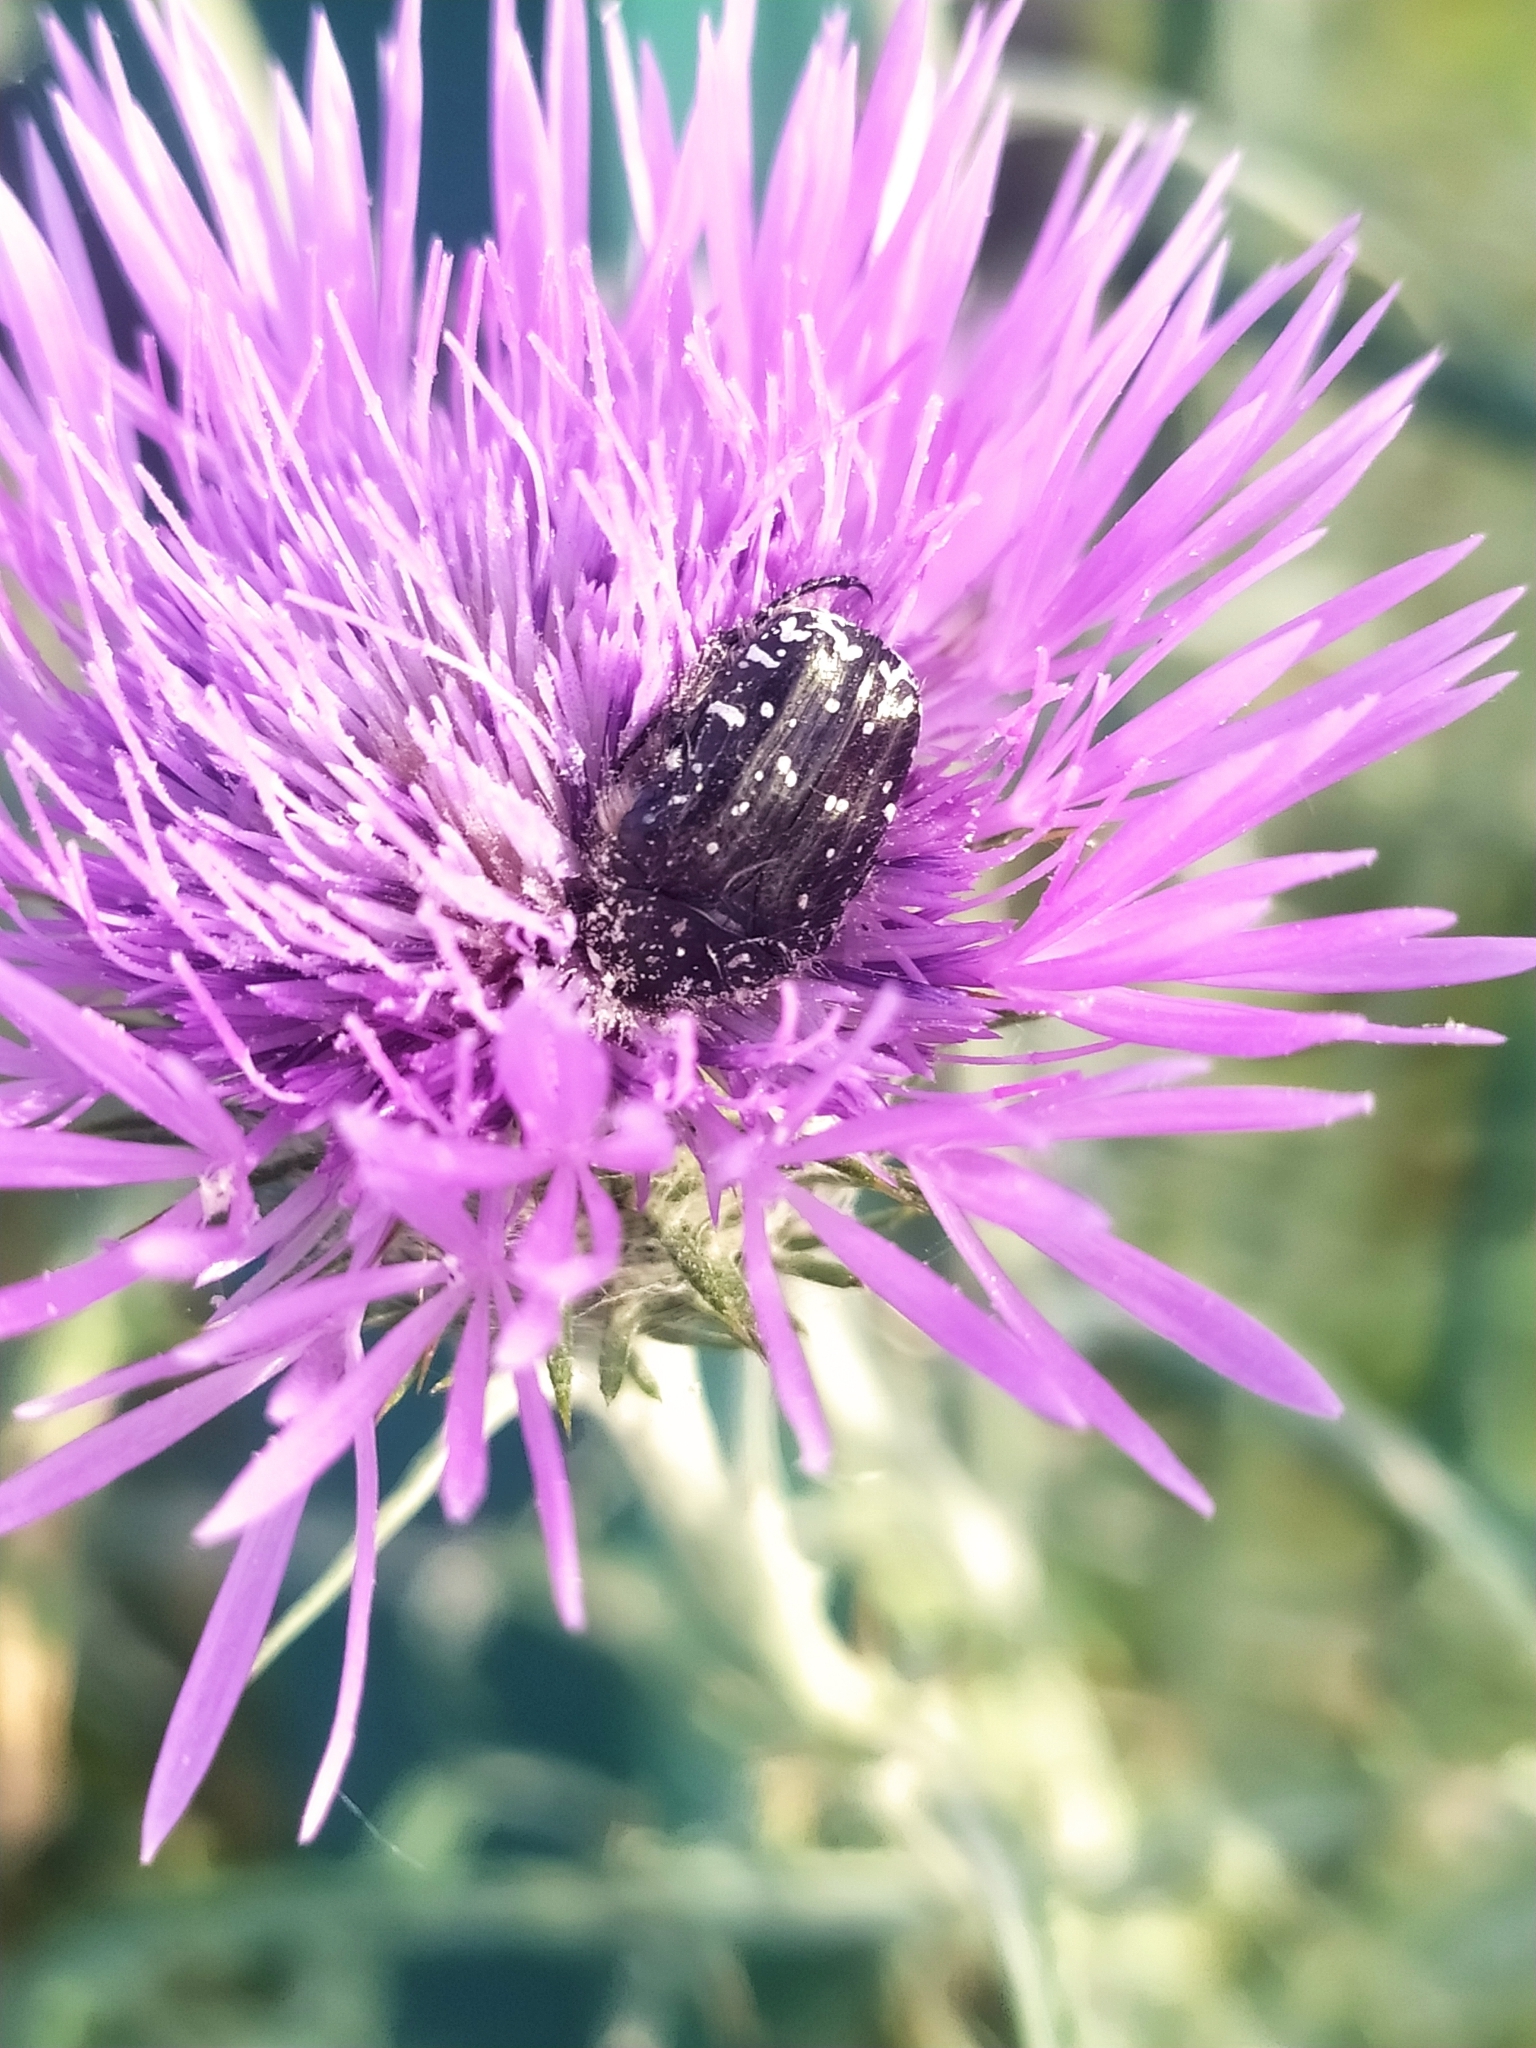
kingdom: Animalia
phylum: Arthropoda
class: Insecta
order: Coleoptera
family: Scarabaeidae
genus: Oxythyrea
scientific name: Oxythyrea funesta
